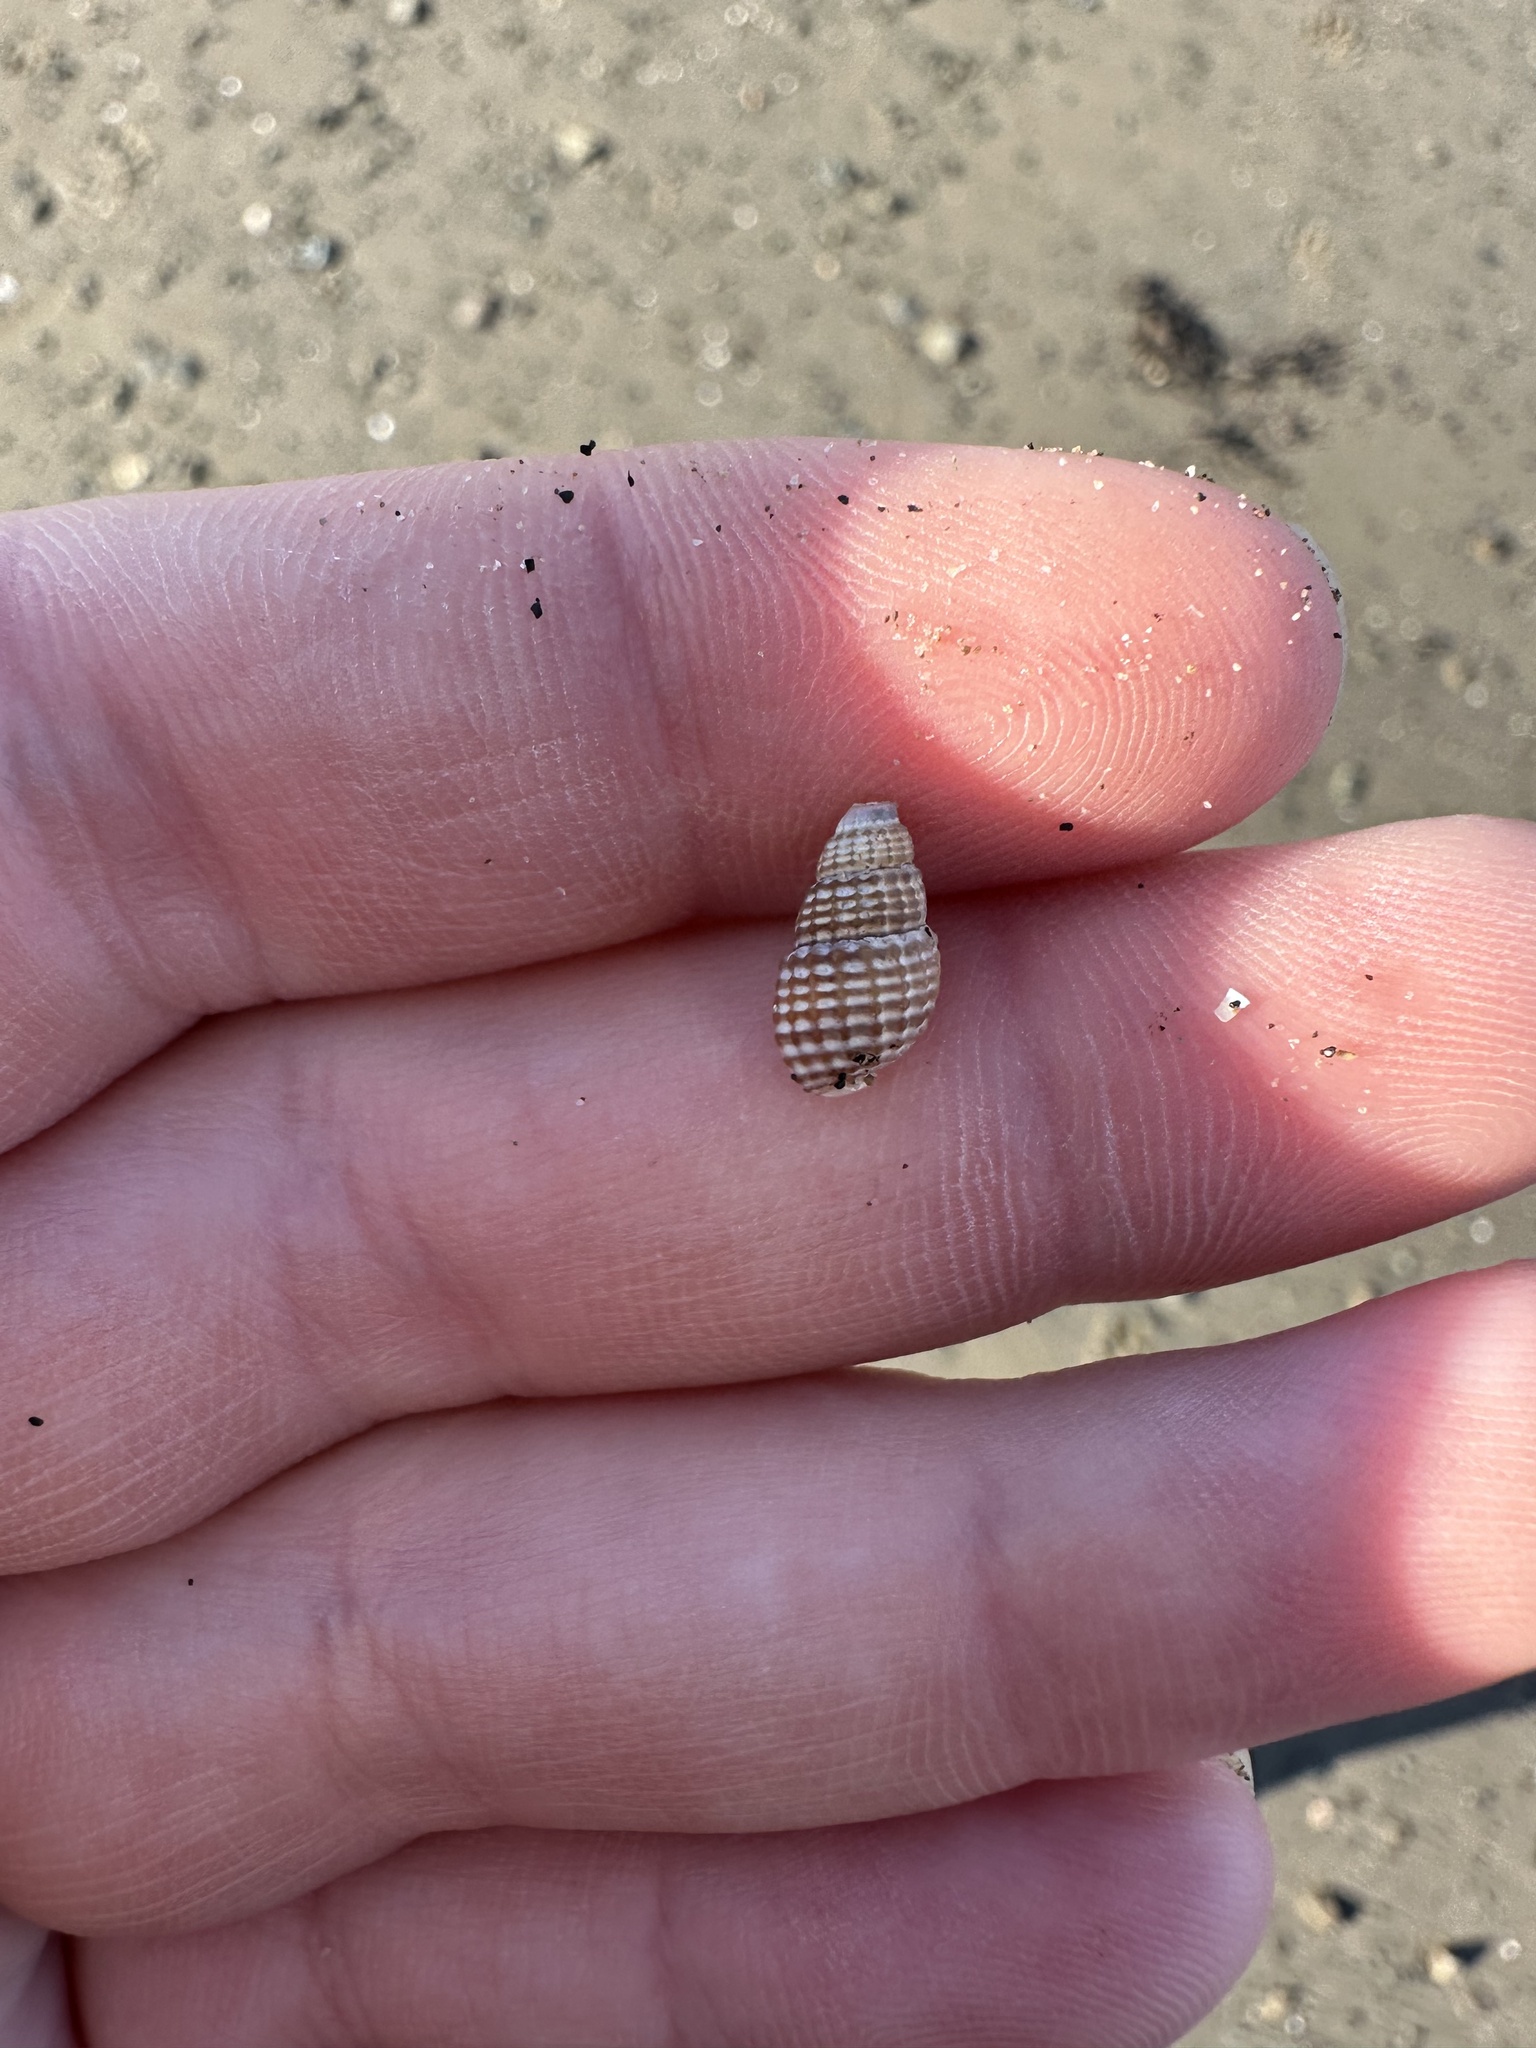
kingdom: Animalia
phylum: Mollusca
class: Gastropoda
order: Neogastropoda
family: Nassariidae
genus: Ilyanassa
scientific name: Ilyanassa trivittata
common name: Three-line mudsnail
